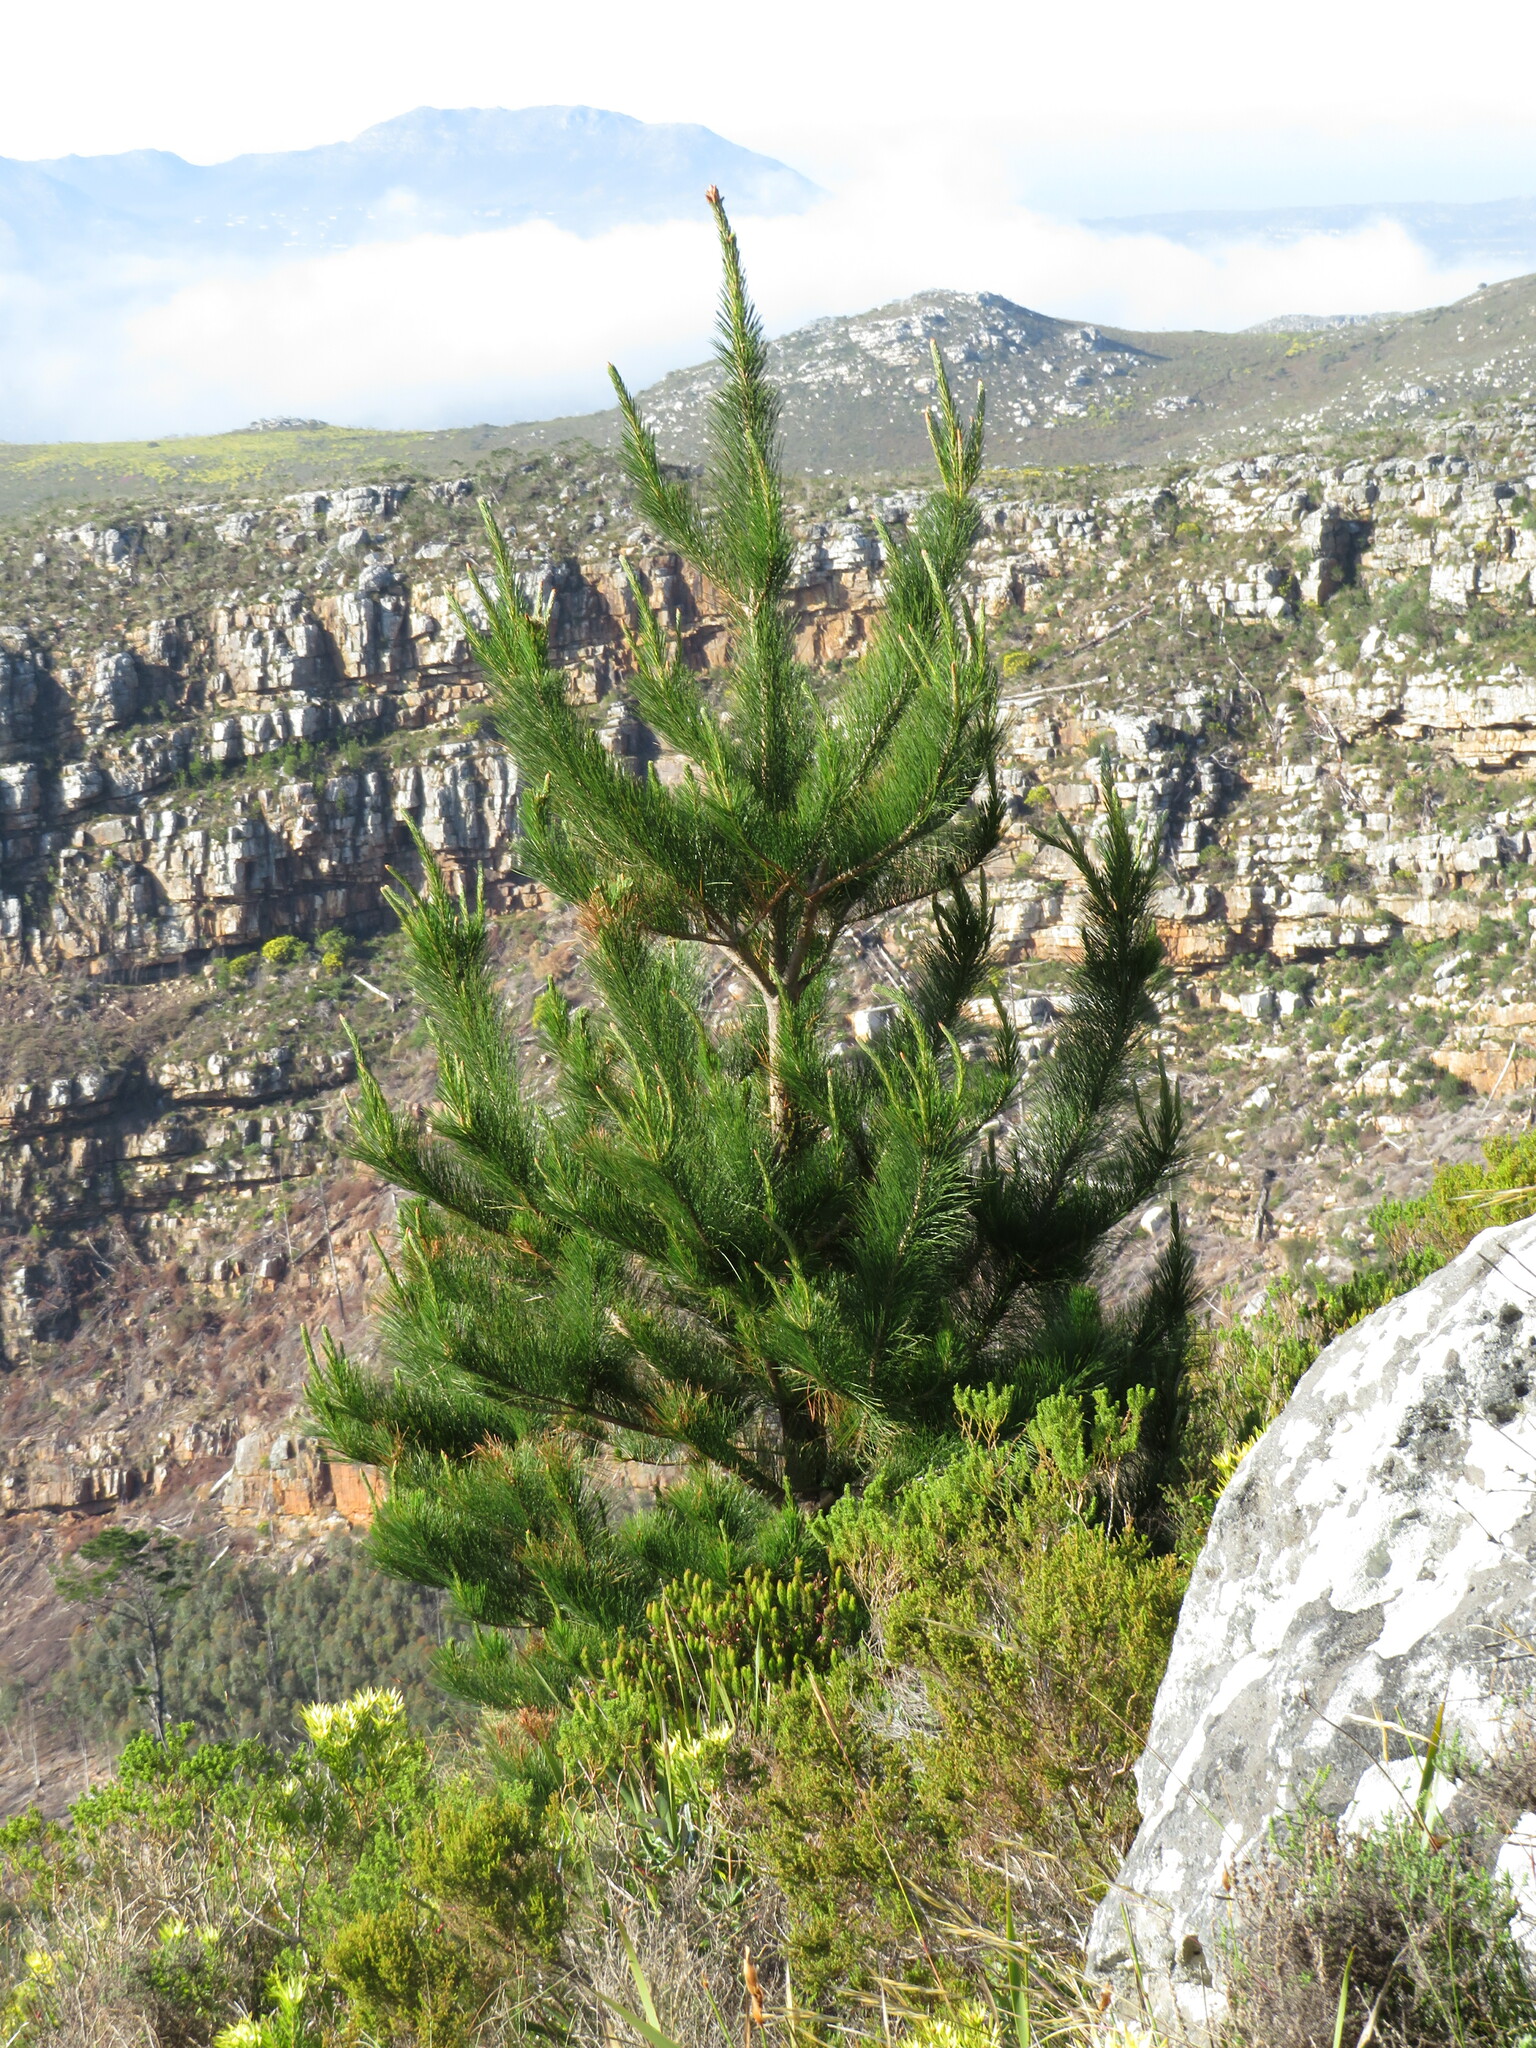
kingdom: Plantae
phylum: Tracheophyta
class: Pinopsida
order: Pinales
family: Pinaceae
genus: Pinus
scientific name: Pinus radiata
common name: Monterey pine
